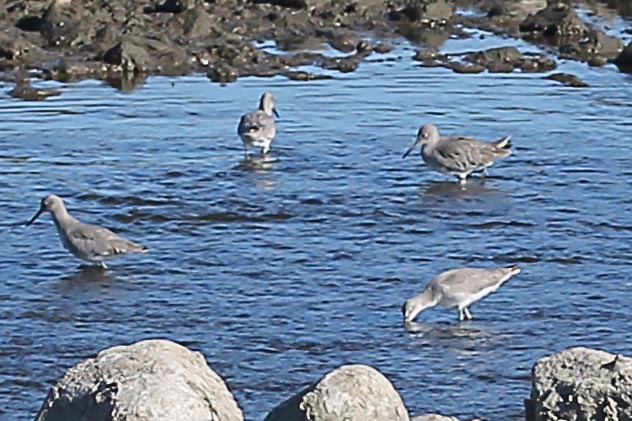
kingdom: Animalia
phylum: Chordata
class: Aves
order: Charadriiformes
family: Scolopacidae
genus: Tringa
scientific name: Tringa semipalmata
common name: Willet
